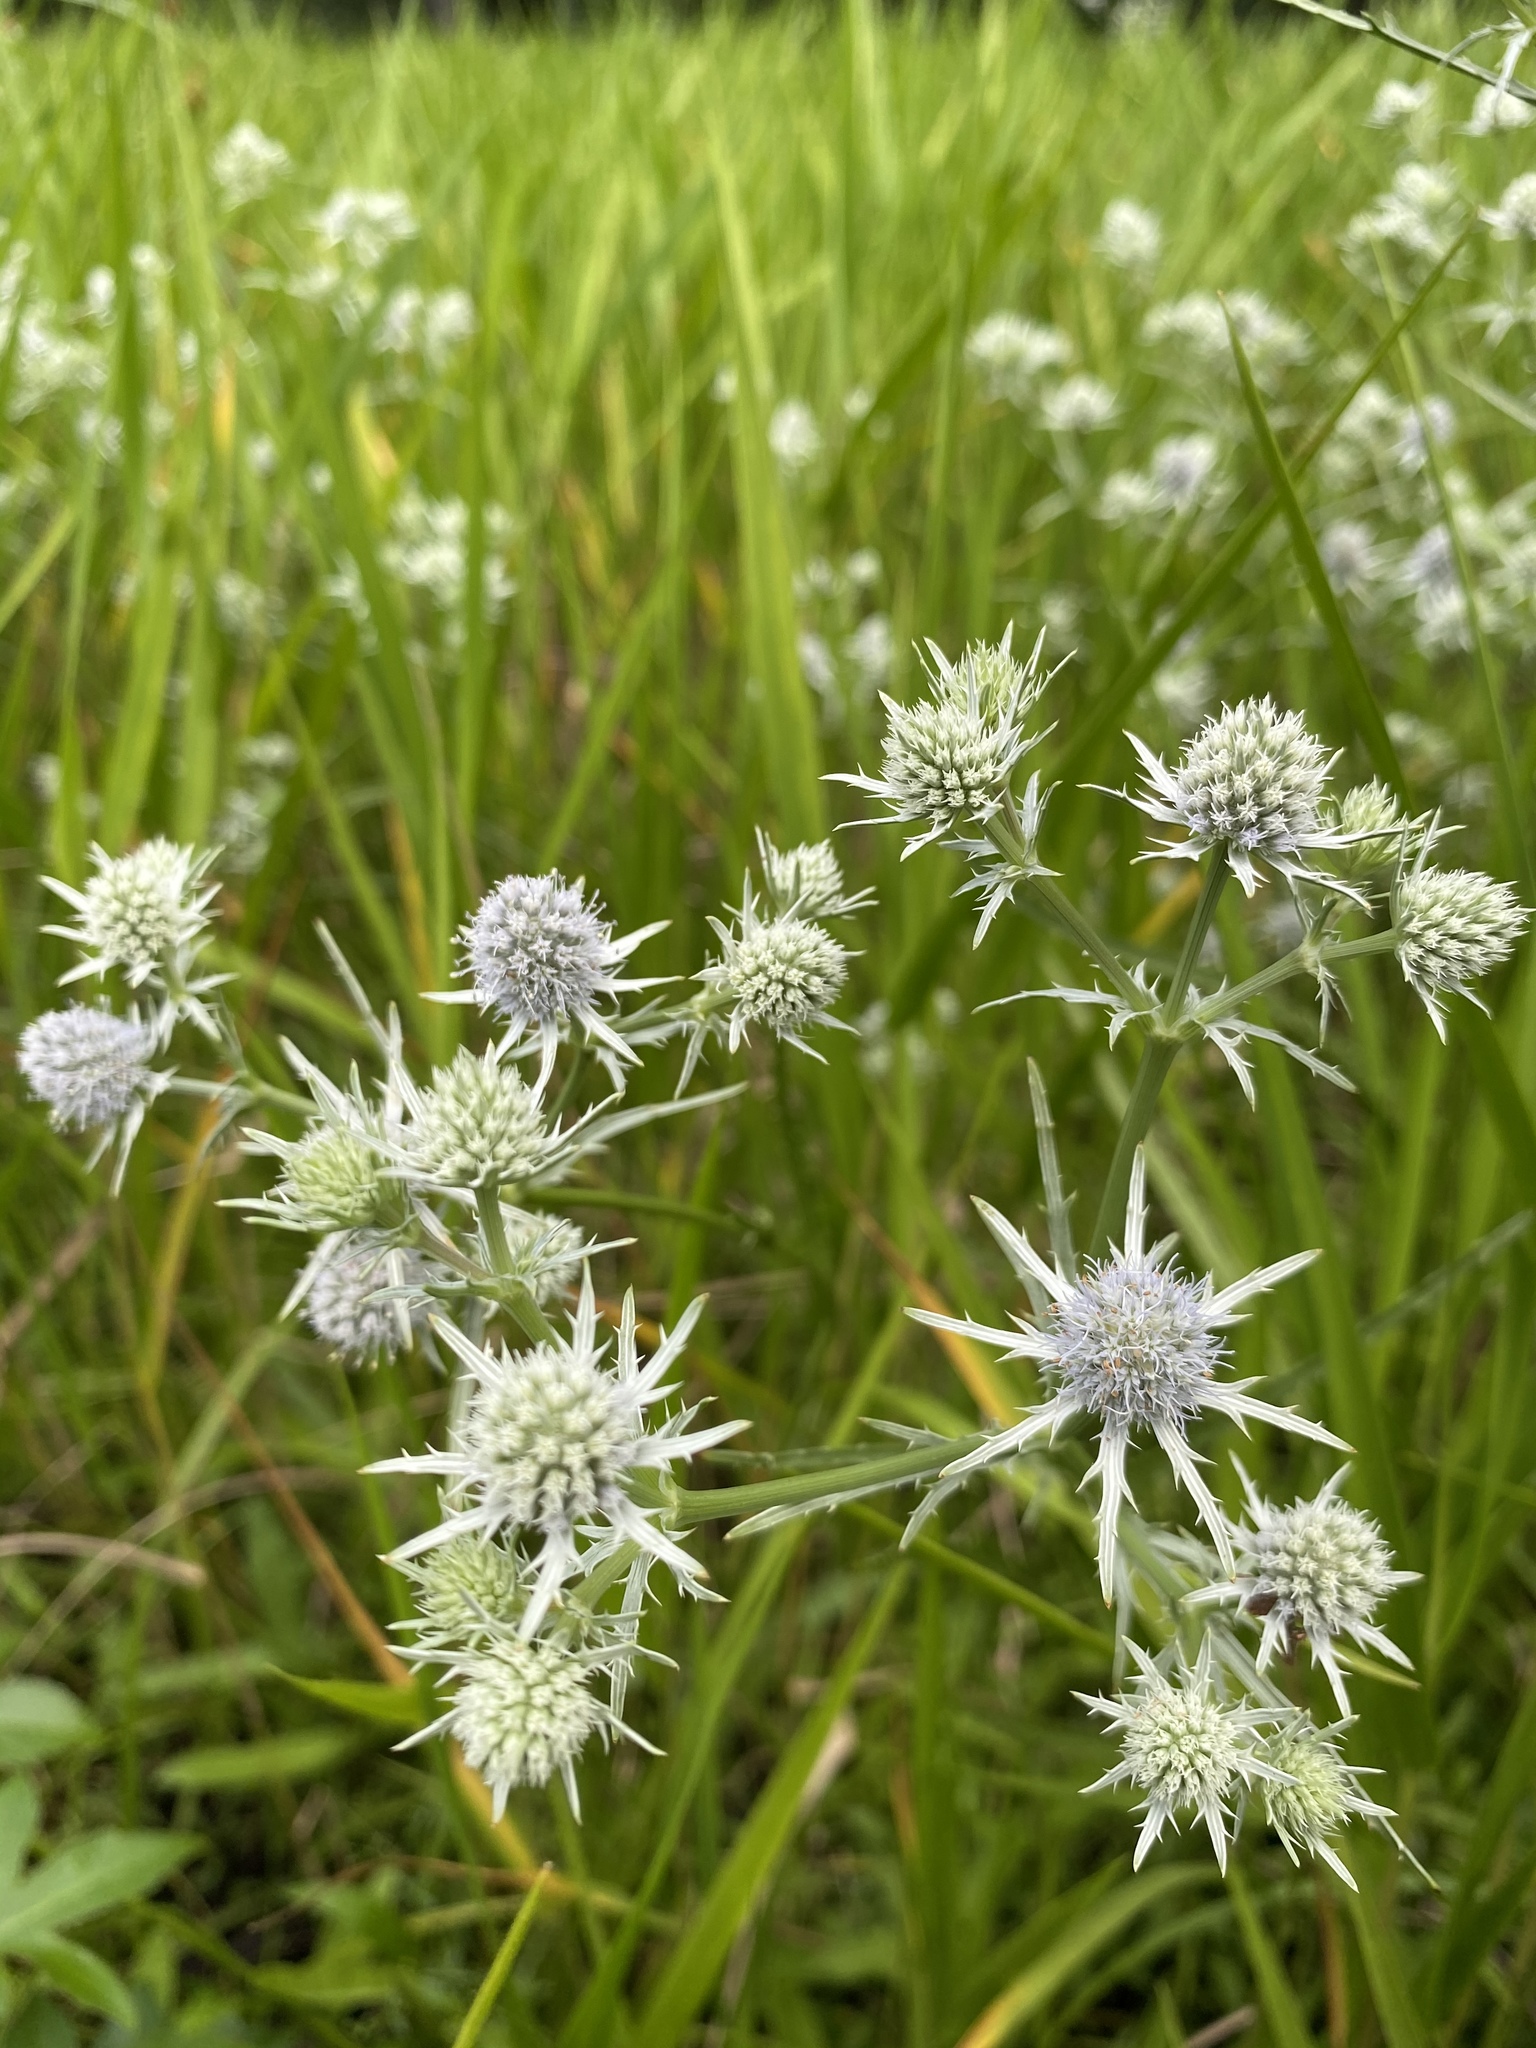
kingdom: Plantae
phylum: Tracheophyta
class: Magnoliopsida
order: Apiales
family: Apiaceae
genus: Eryngium
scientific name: Eryngium aquaticum
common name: Water eryngo
